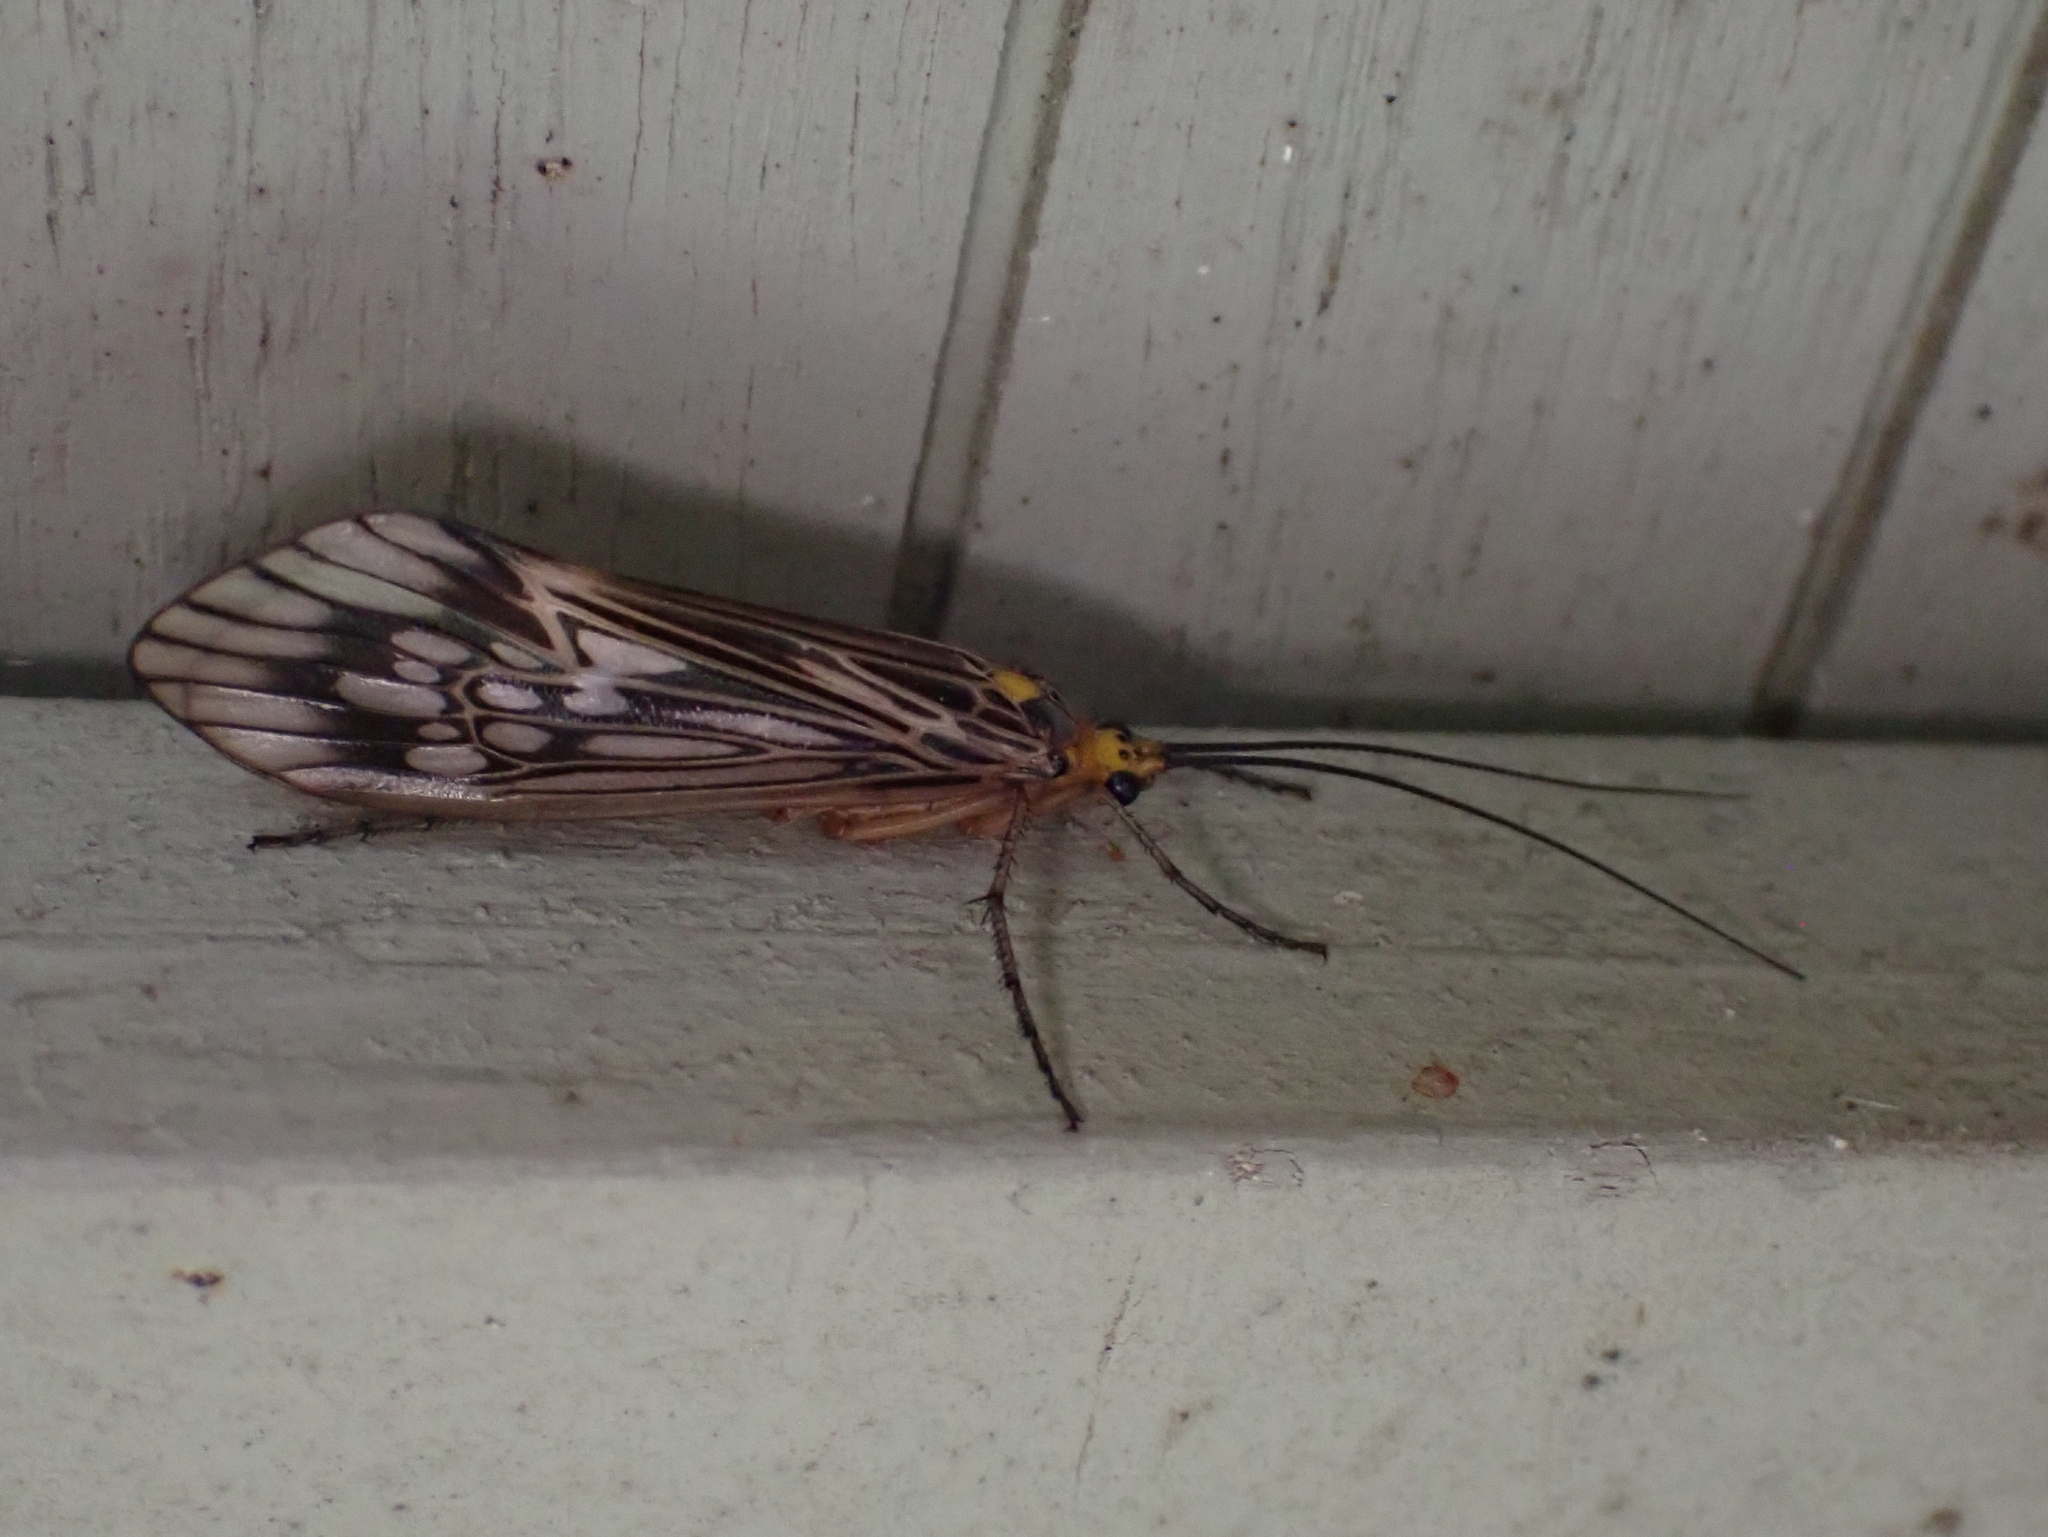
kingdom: Animalia
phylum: Arthropoda
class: Insecta
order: Trichoptera
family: Limnephilidae
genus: Hydatophylax
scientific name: Hydatophylax argus
